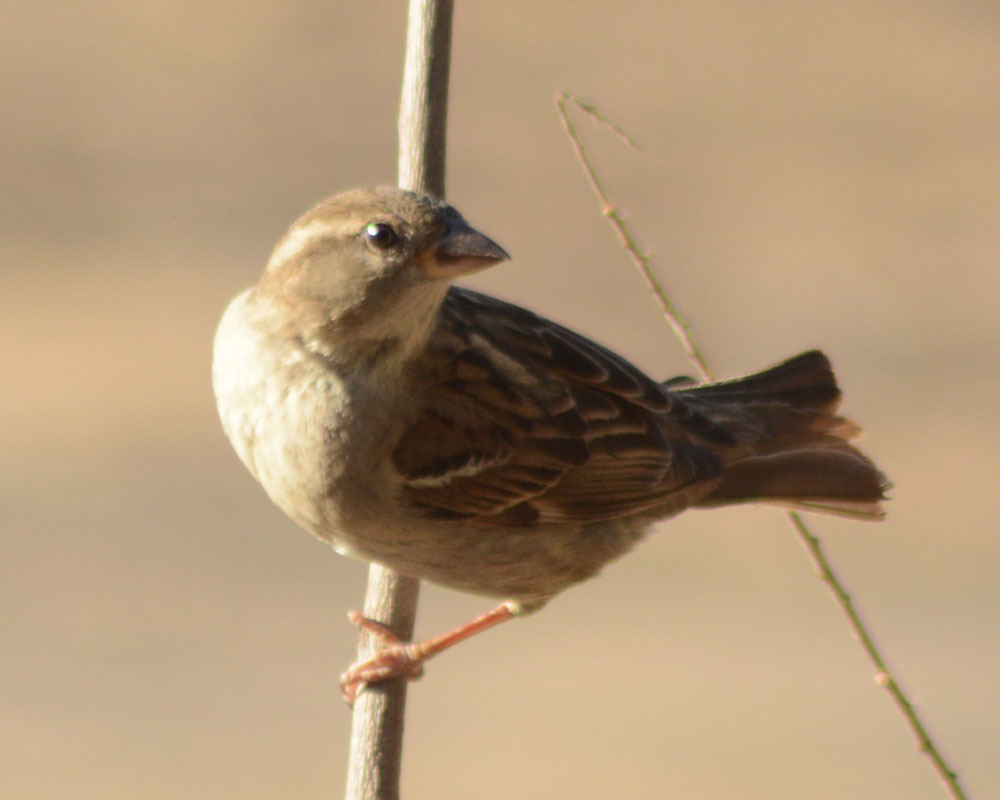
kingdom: Animalia
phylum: Chordata
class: Aves
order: Passeriformes
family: Passeridae
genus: Passer
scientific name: Passer domesticus
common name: House sparrow
